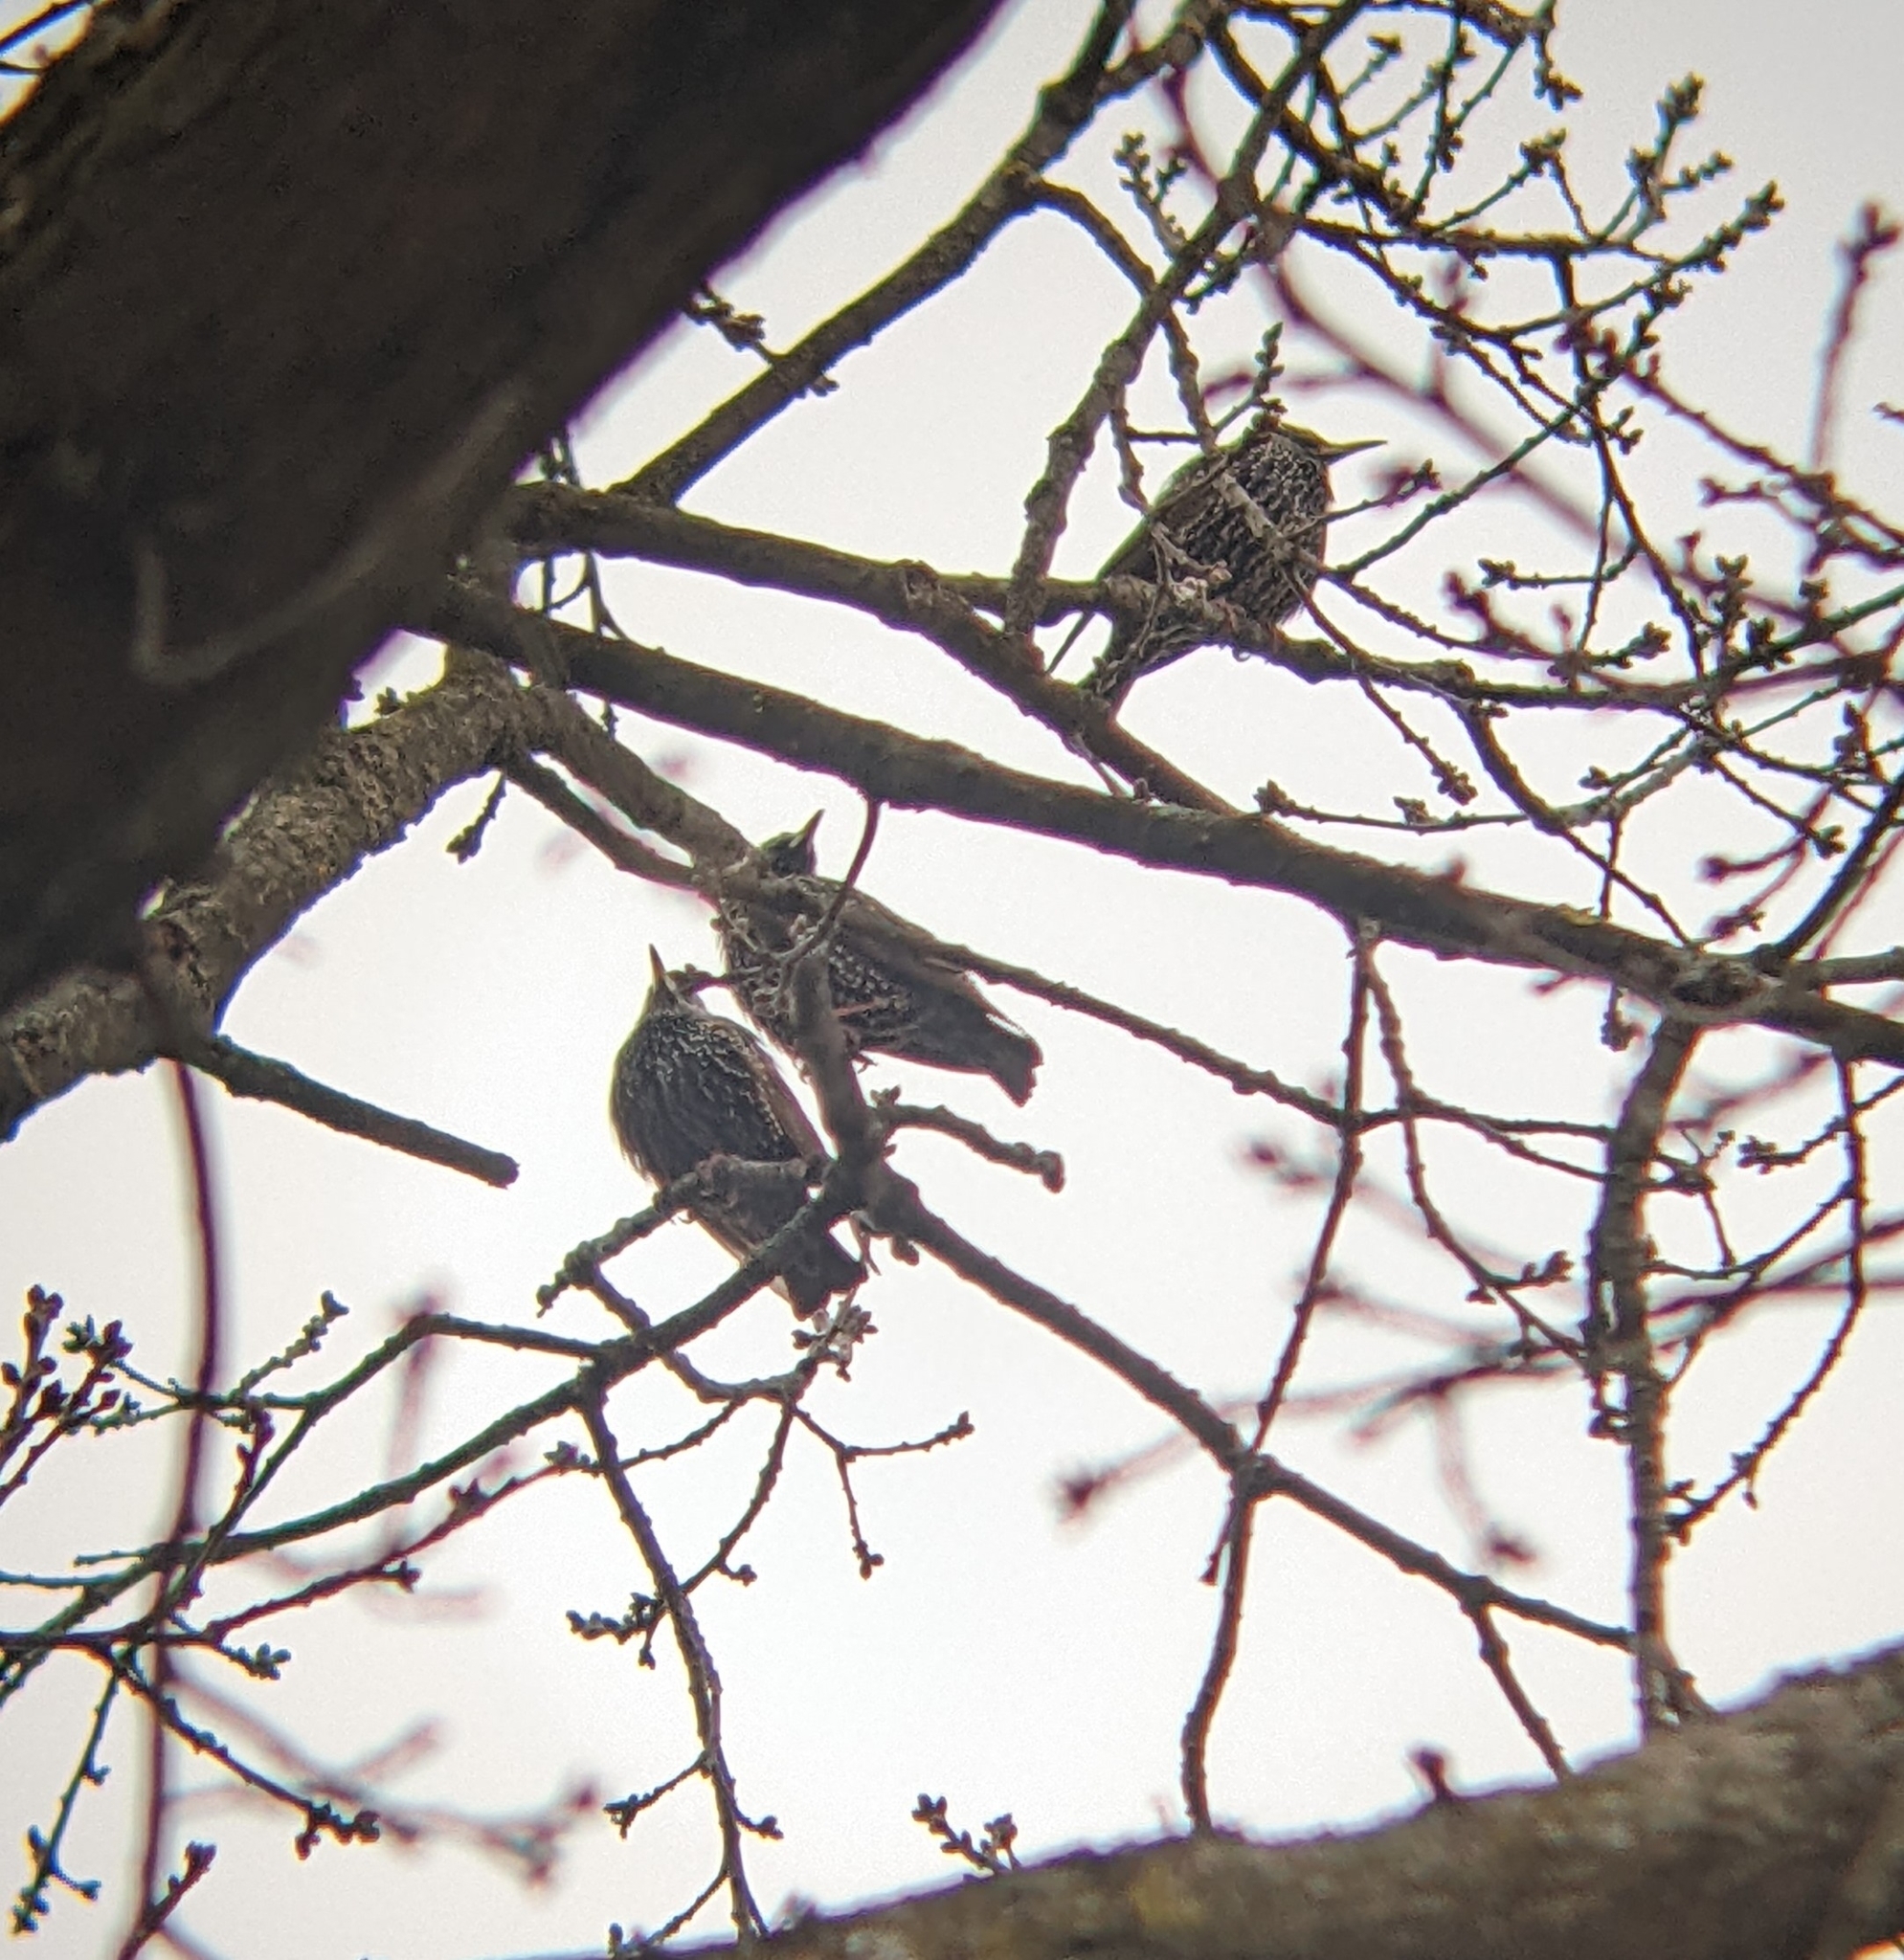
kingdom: Animalia
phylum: Chordata
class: Aves
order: Passeriformes
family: Sturnidae
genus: Sturnus
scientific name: Sturnus vulgaris
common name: Common starling
